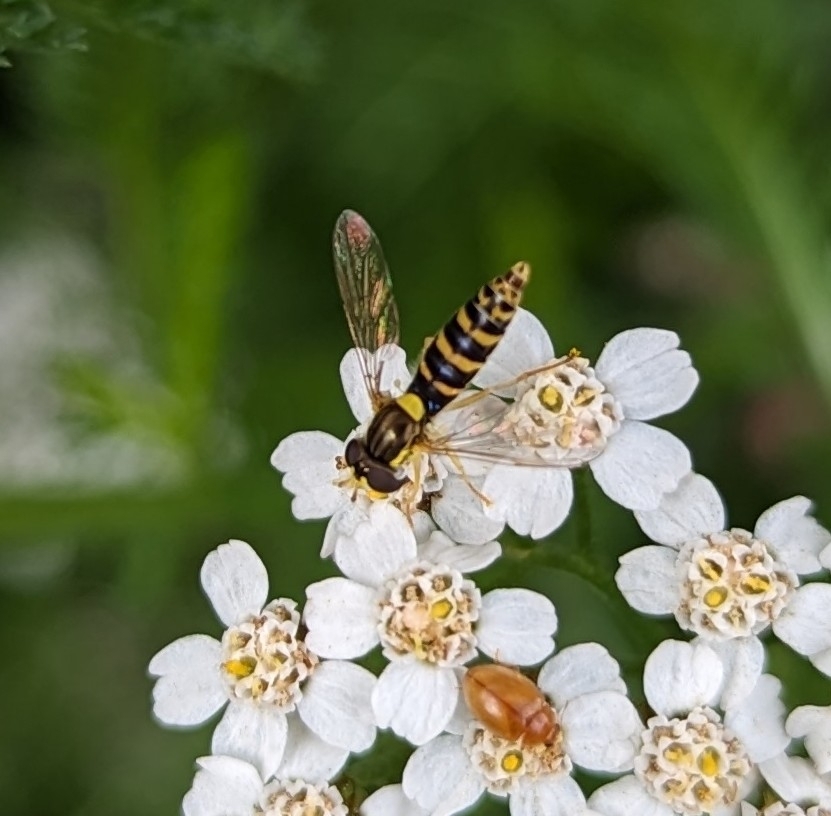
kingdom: Animalia
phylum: Arthropoda
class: Insecta
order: Diptera
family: Syrphidae
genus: Sphaerophoria
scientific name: Sphaerophoria
